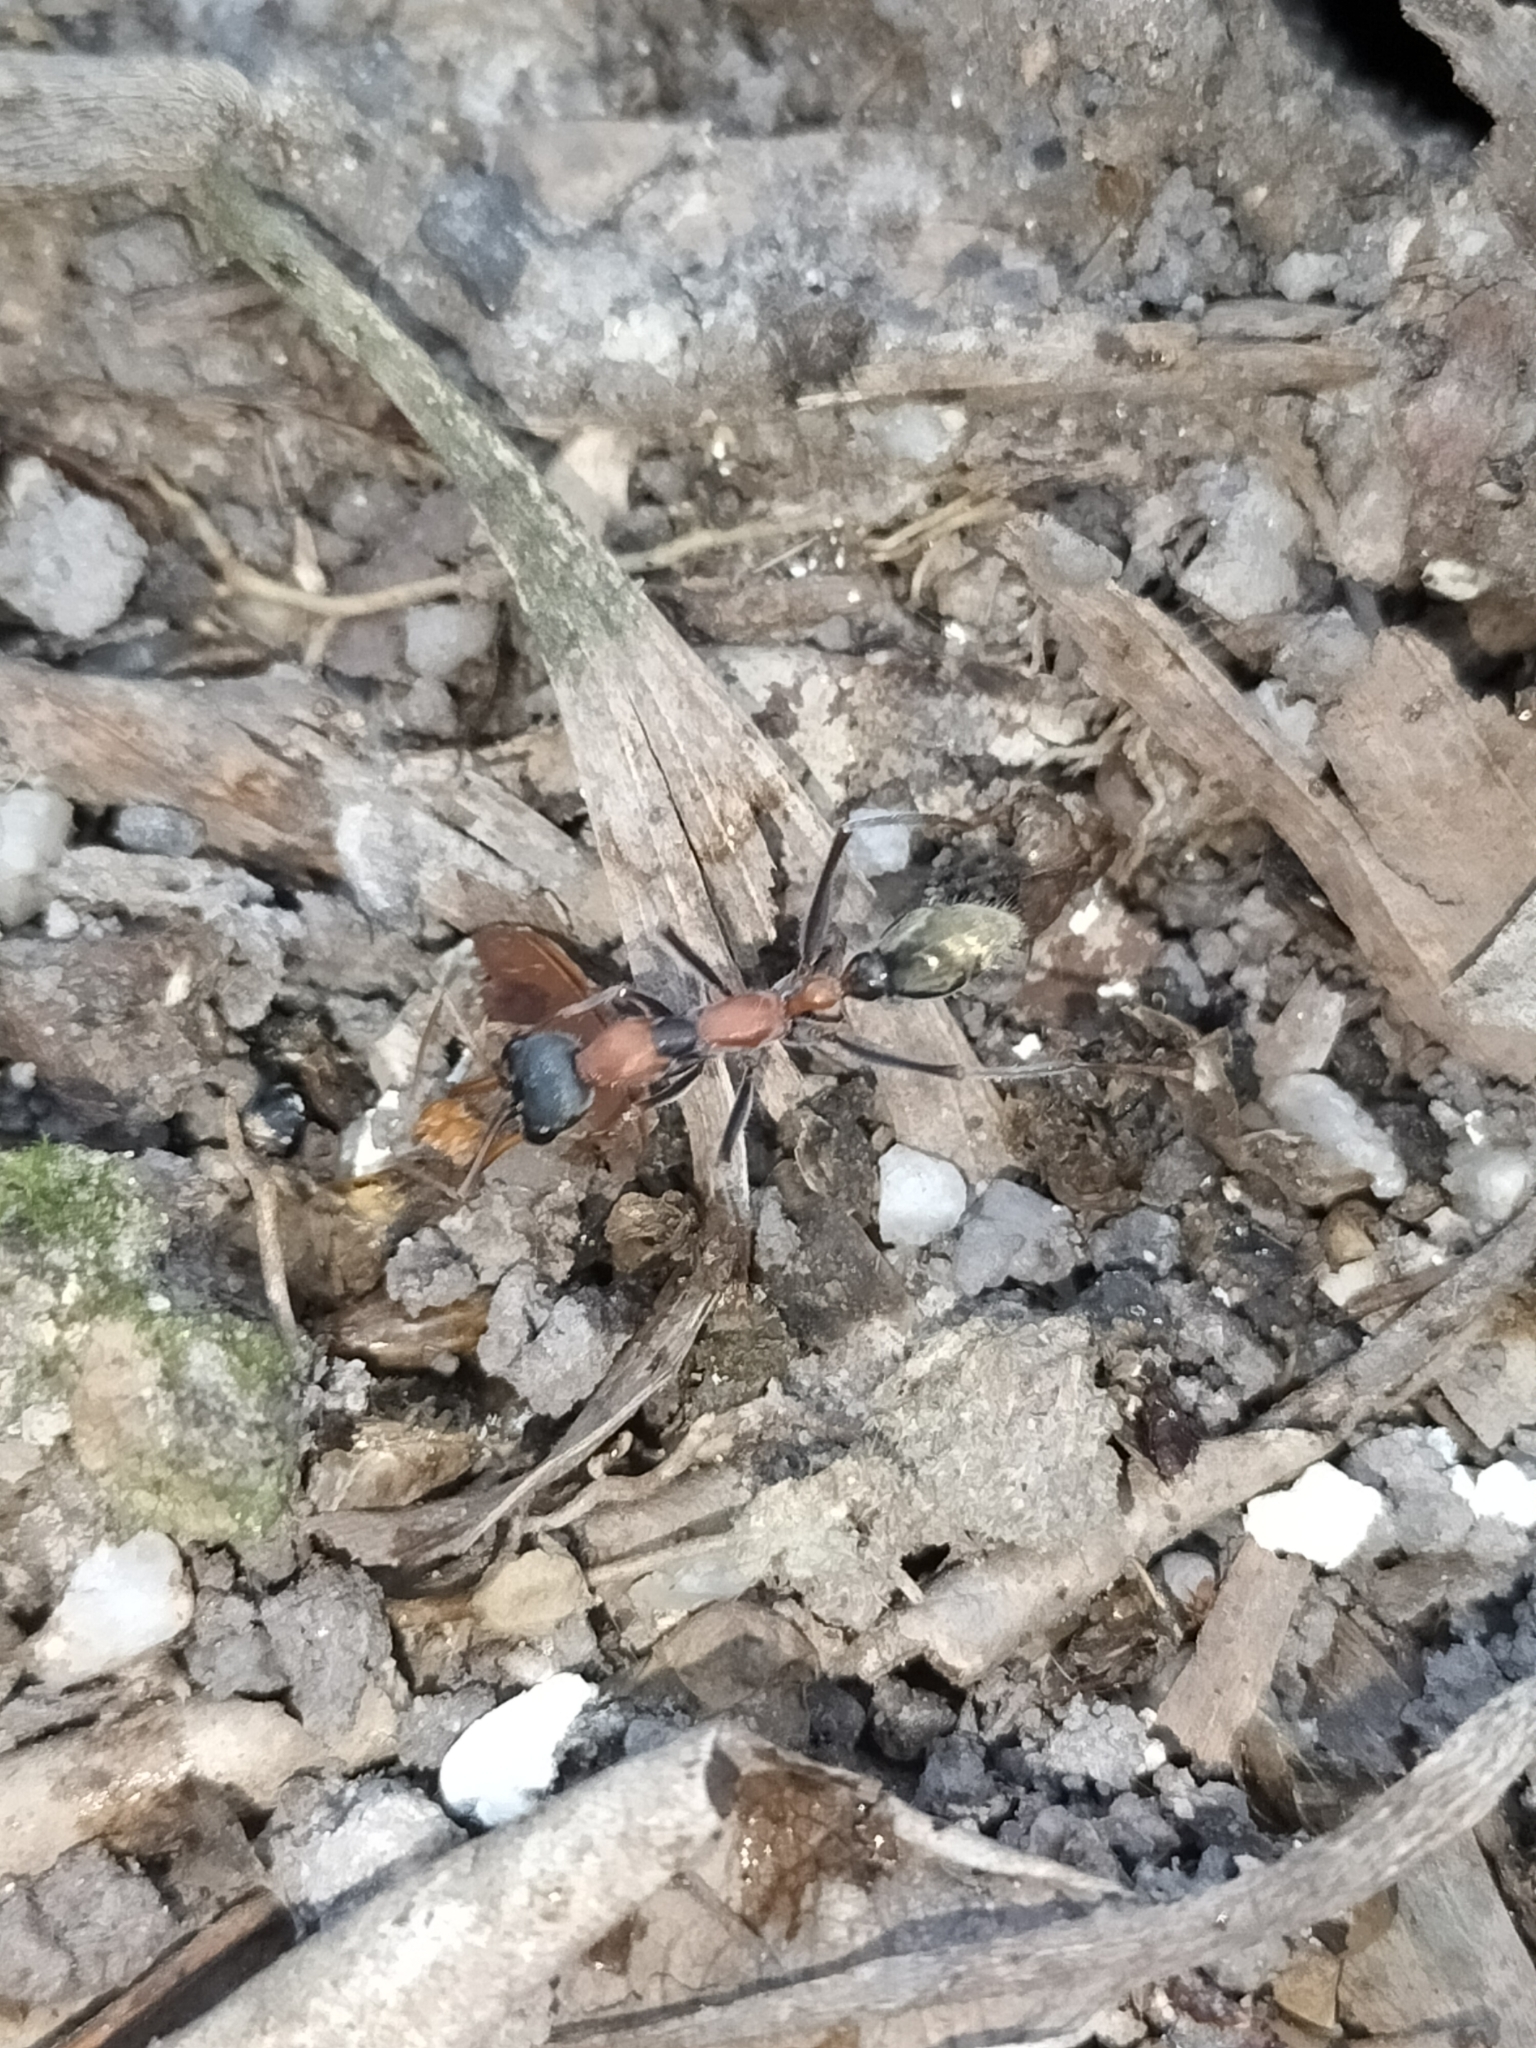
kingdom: Animalia
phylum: Arthropoda
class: Insecta
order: Hymenoptera
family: Formicidae
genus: Myrmecia
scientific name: Myrmecia nigrocincta
